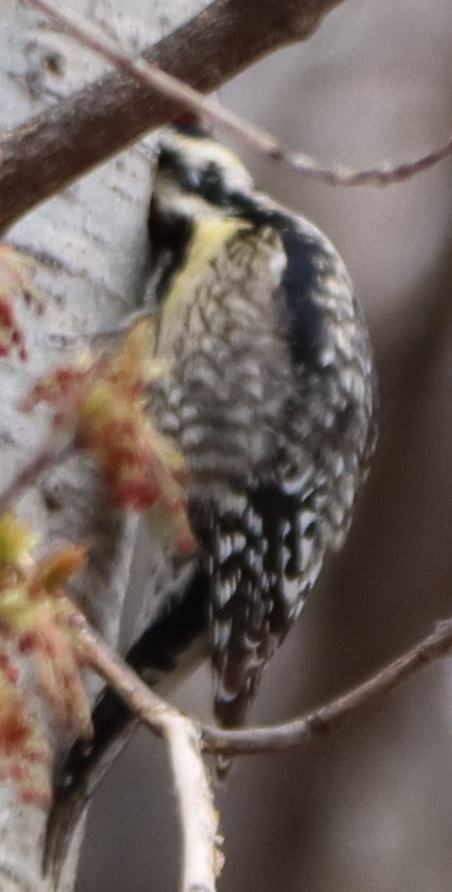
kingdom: Animalia
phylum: Chordata
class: Aves
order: Piciformes
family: Picidae
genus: Sphyrapicus
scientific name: Sphyrapicus varius
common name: Yellow-bellied sapsucker
